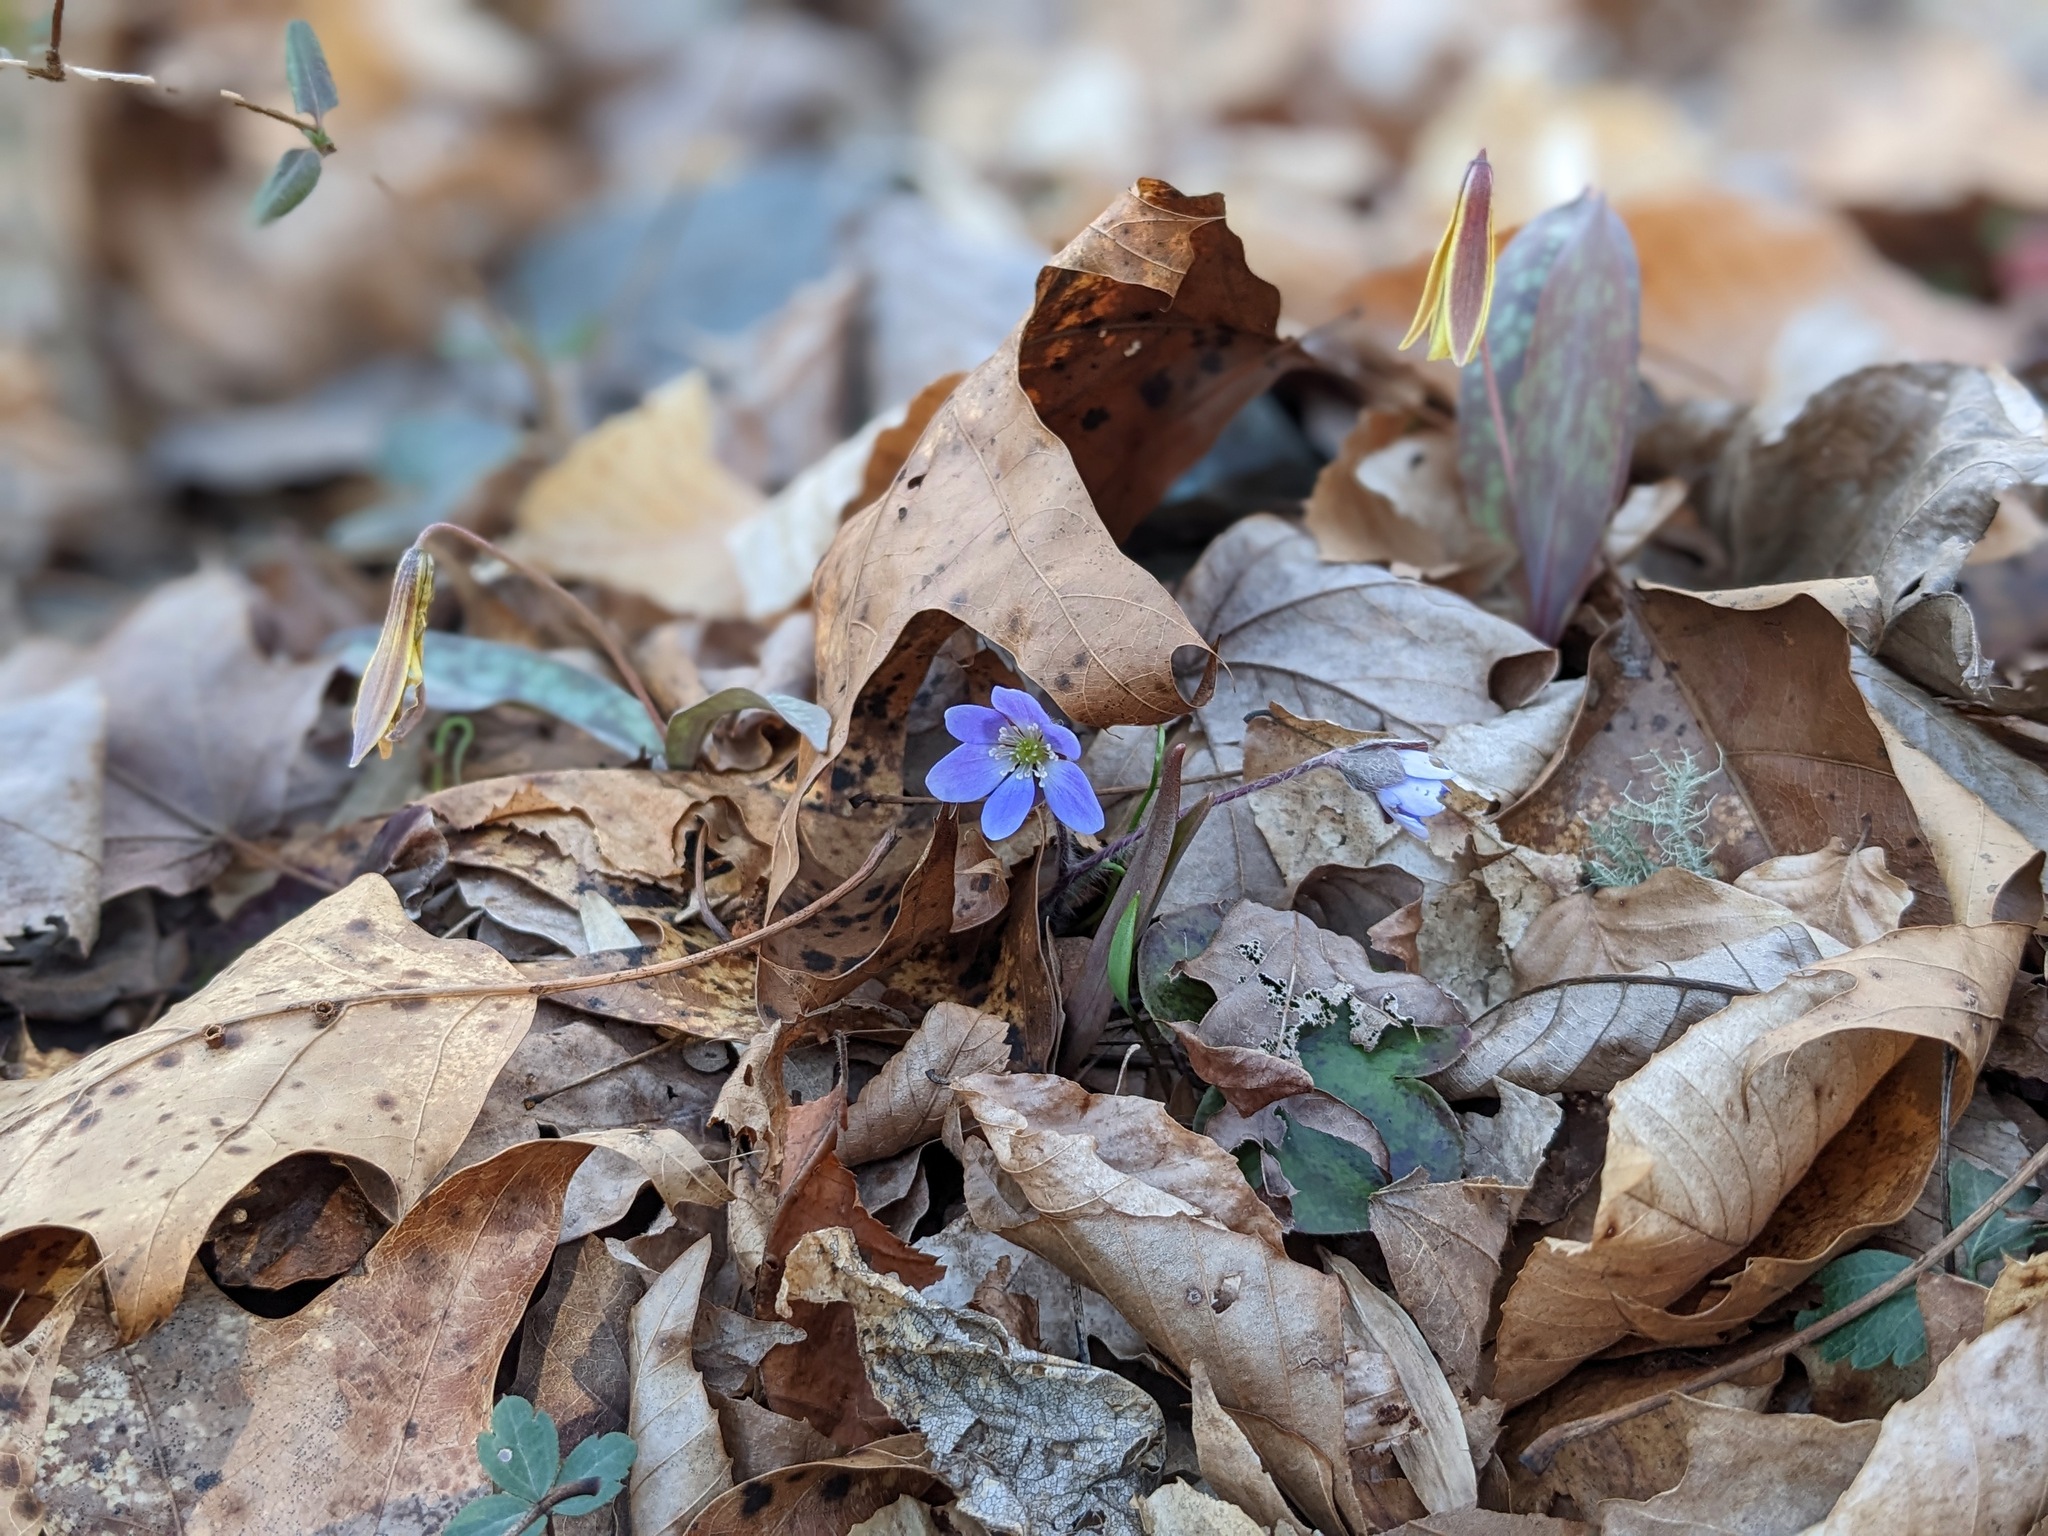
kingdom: Plantae
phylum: Tracheophyta
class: Magnoliopsida
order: Ranunculales
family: Ranunculaceae
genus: Hepatica
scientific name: Hepatica americana
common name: American hepatica
